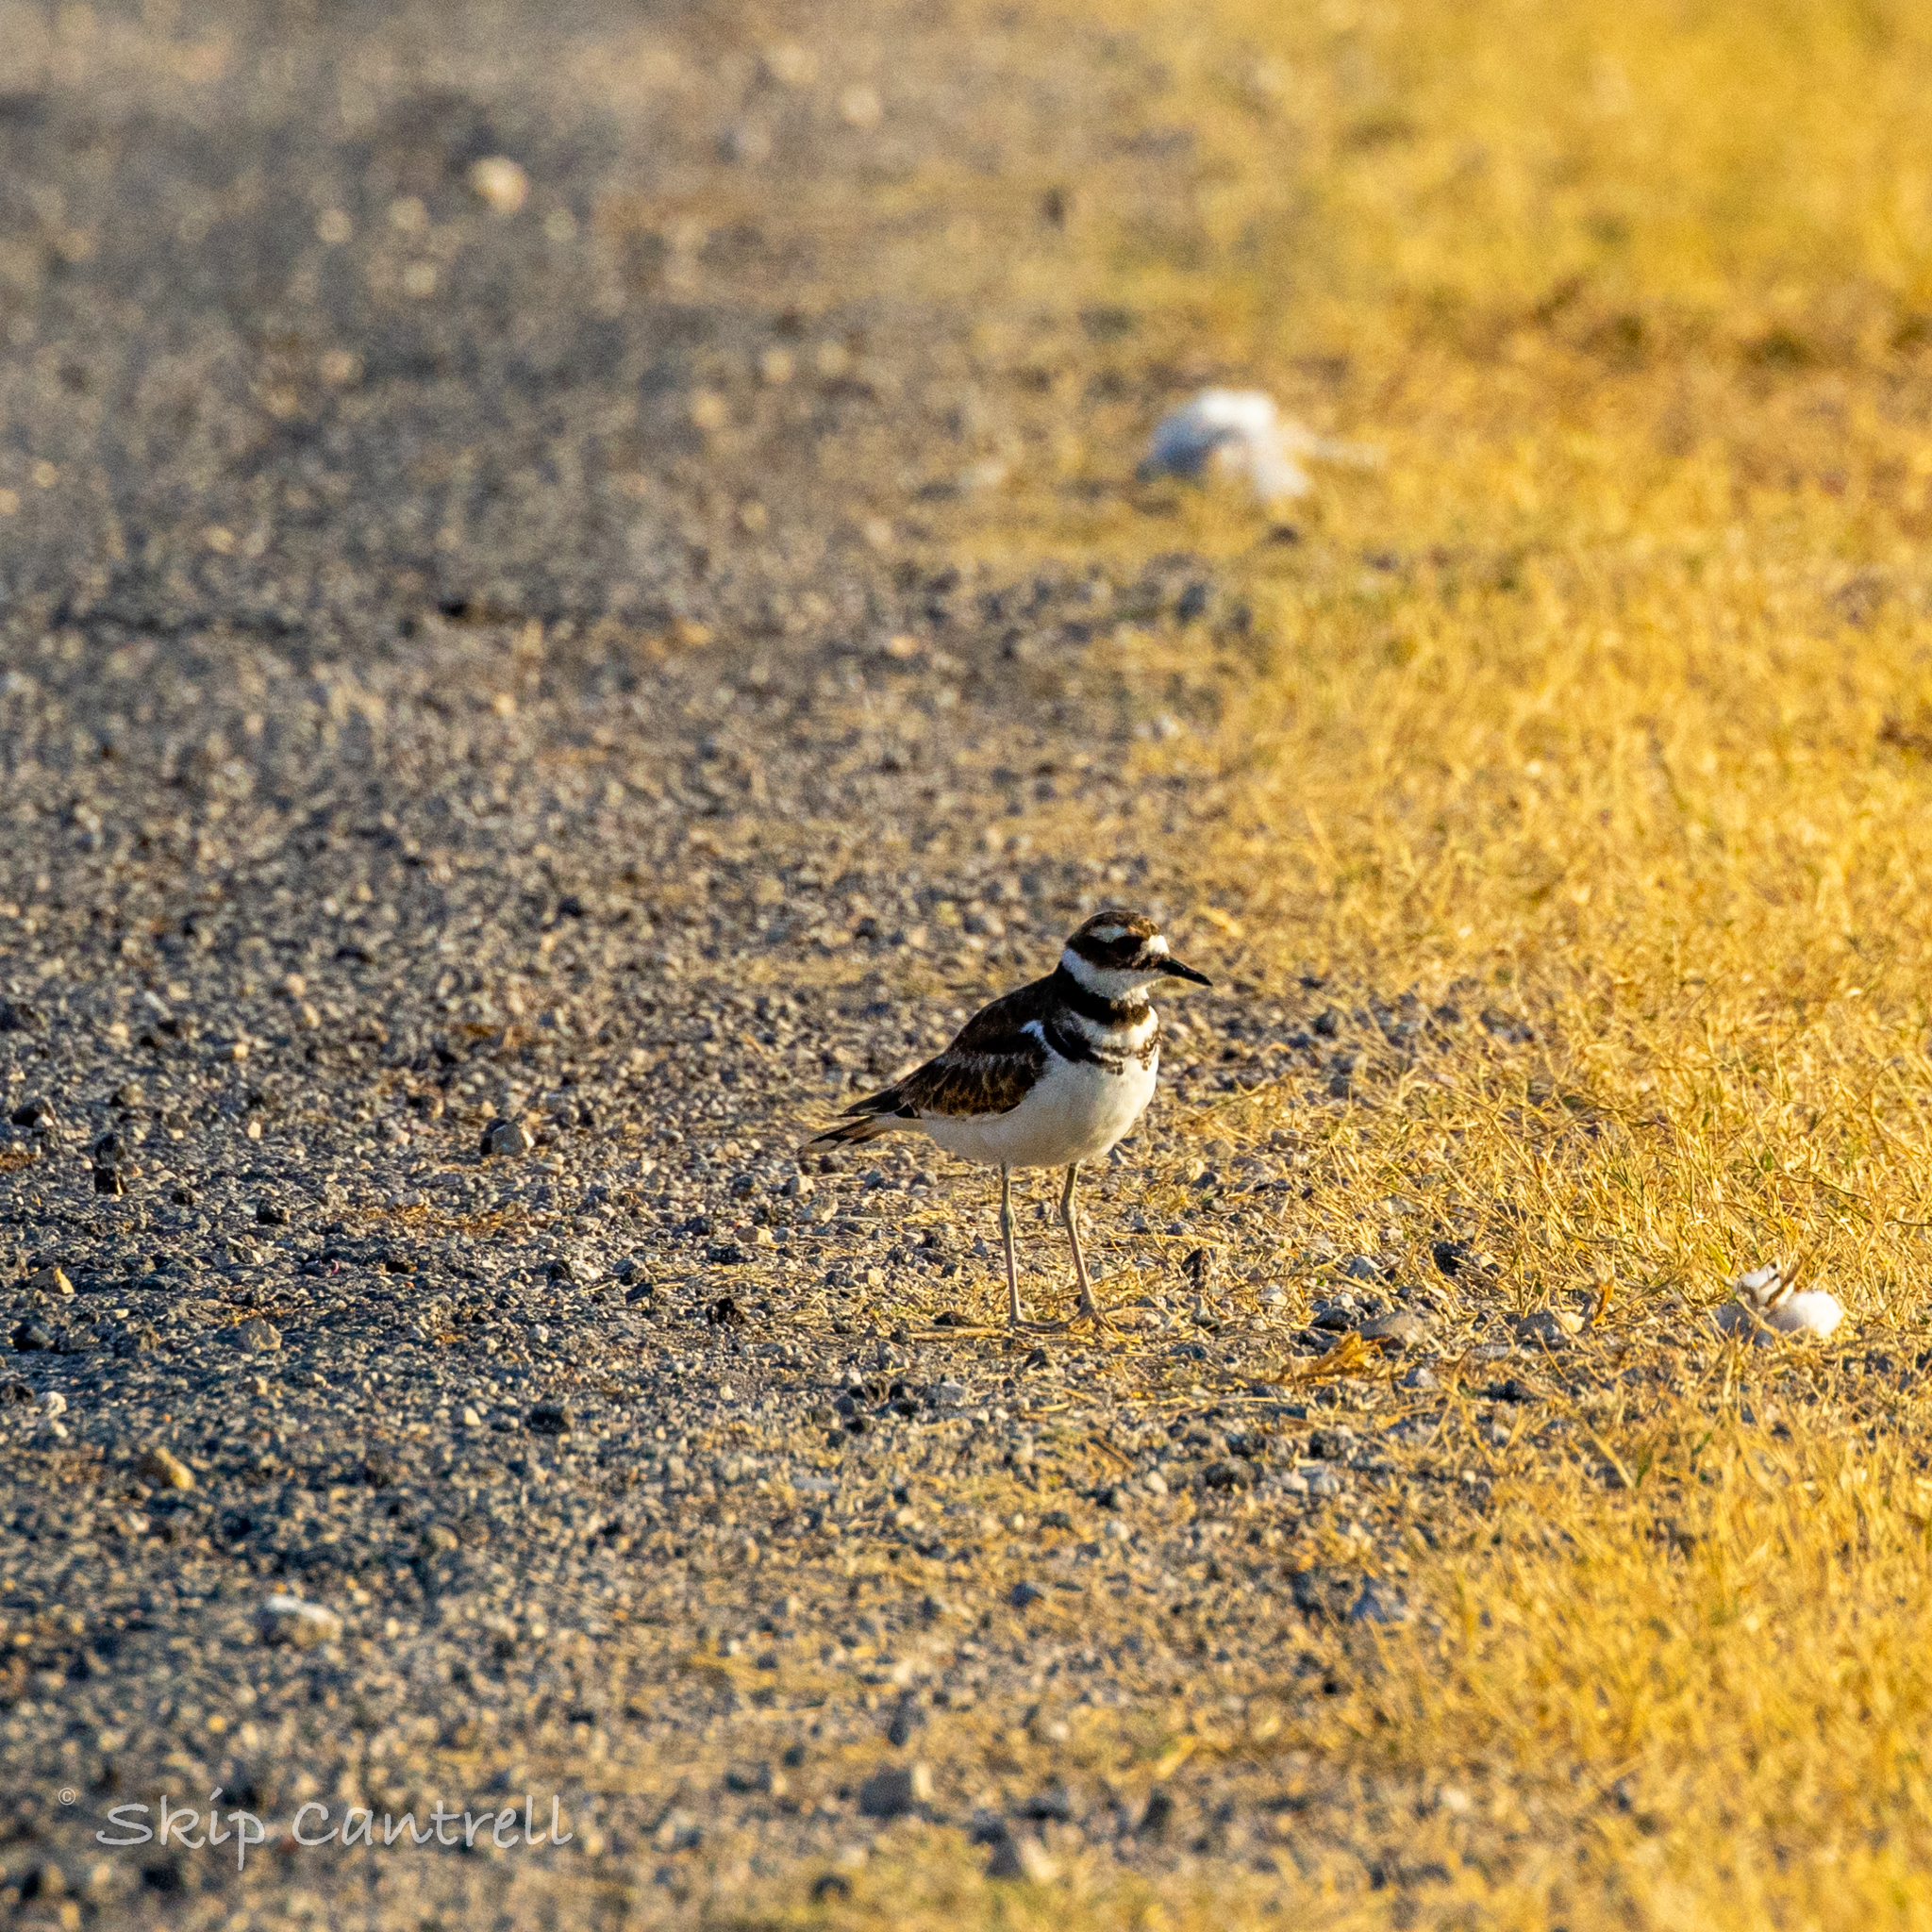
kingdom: Animalia
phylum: Chordata
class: Aves
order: Charadriiformes
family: Charadriidae
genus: Charadrius
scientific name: Charadrius vociferus
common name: Killdeer
